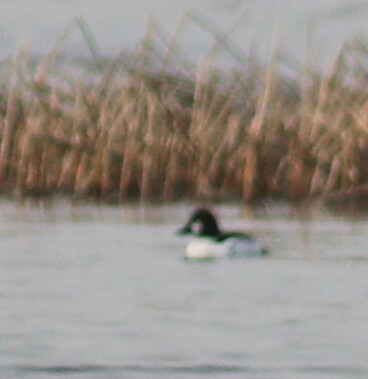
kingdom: Animalia
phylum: Chordata
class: Aves
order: Anseriformes
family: Anatidae
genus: Bucephala
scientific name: Bucephala clangula
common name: Common goldeneye
